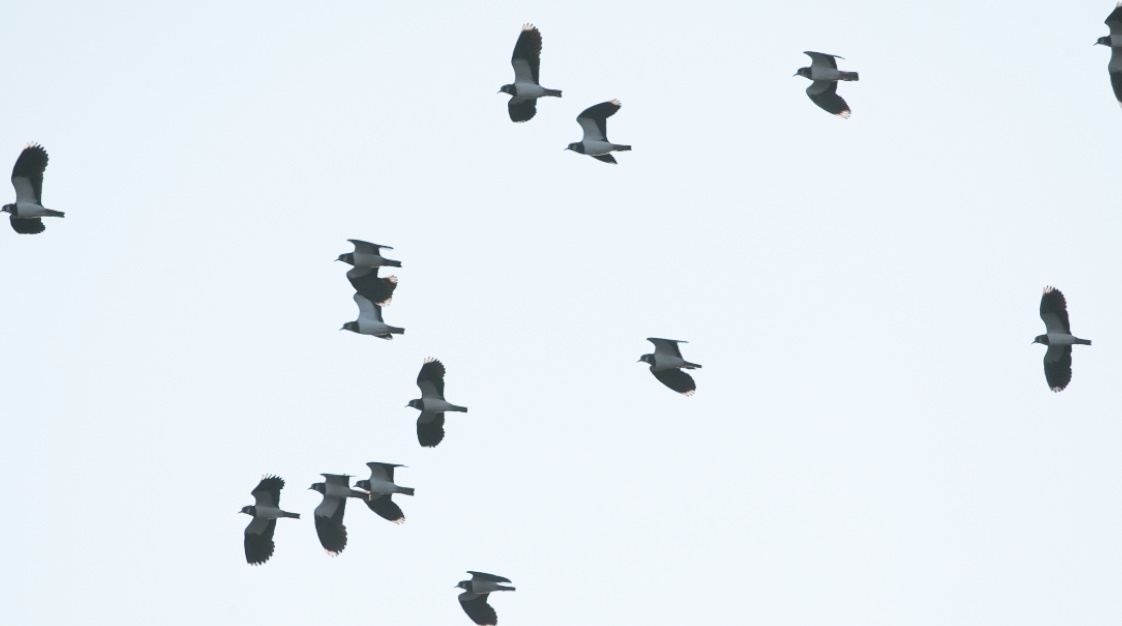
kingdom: Animalia
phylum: Chordata
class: Aves
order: Charadriiformes
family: Charadriidae
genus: Vanellus
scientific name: Vanellus vanellus
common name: Northern lapwing
